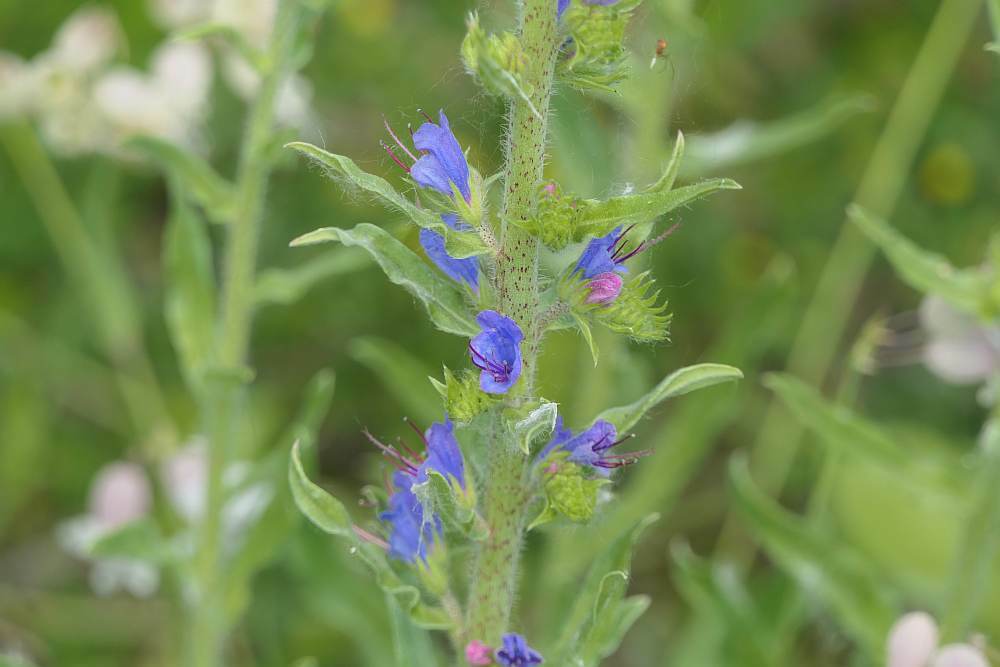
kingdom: Plantae
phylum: Tracheophyta
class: Magnoliopsida
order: Boraginales
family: Boraginaceae
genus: Echium
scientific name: Echium vulgare
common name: Common viper's bugloss
